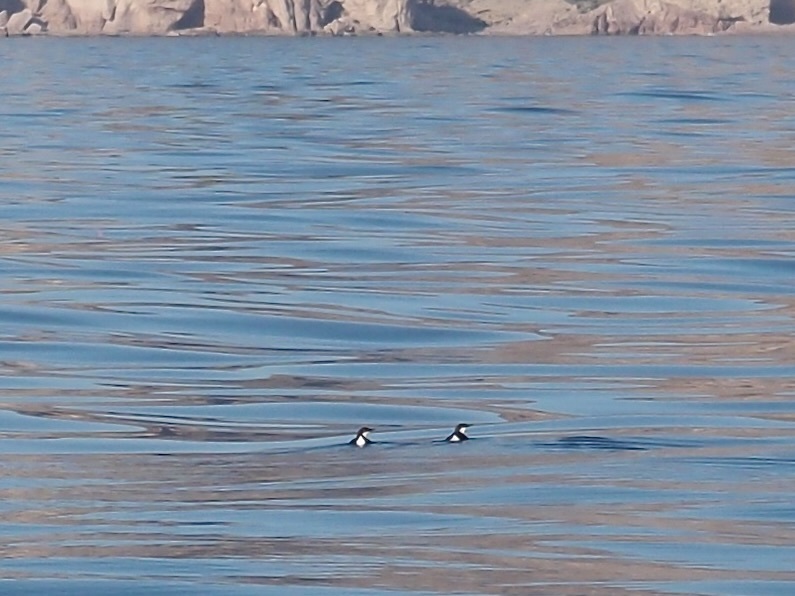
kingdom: Animalia
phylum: Chordata
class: Aves
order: Charadriiformes
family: Alcidae
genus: Synthliboramphus
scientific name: Synthliboramphus craveri
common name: Craveri's murrelet
